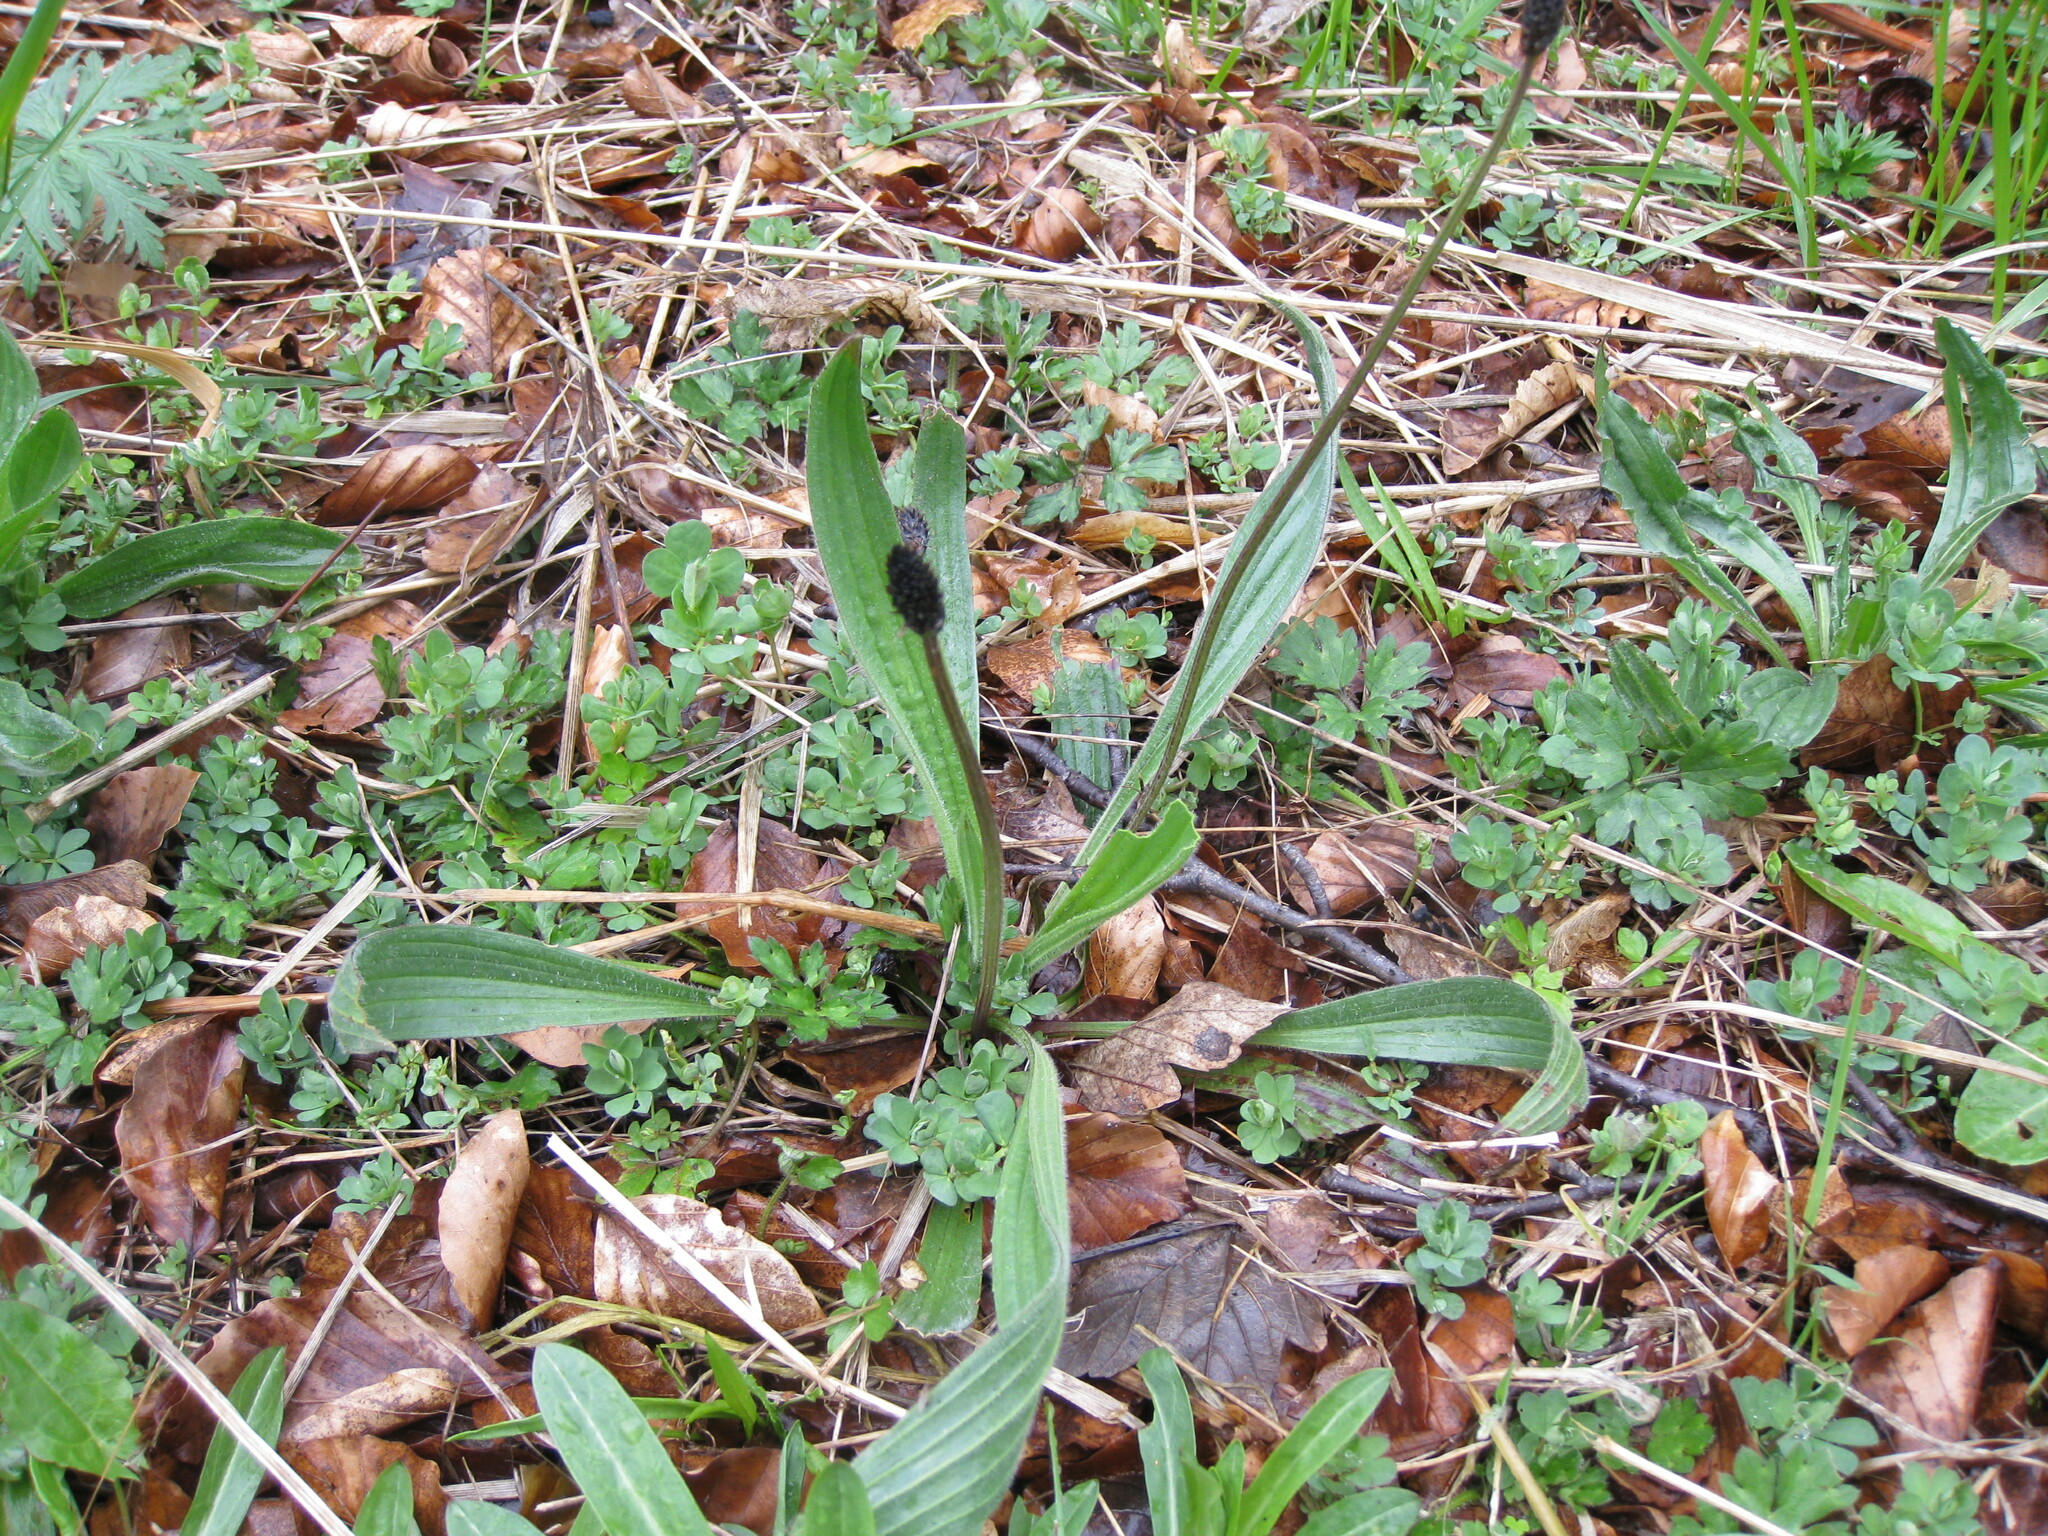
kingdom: Plantae
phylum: Tracheophyta
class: Magnoliopsida
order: Lamiales
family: Plantaginaceae
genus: Plantago
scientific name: Plantago lanceolata
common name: Ribwort plantain
